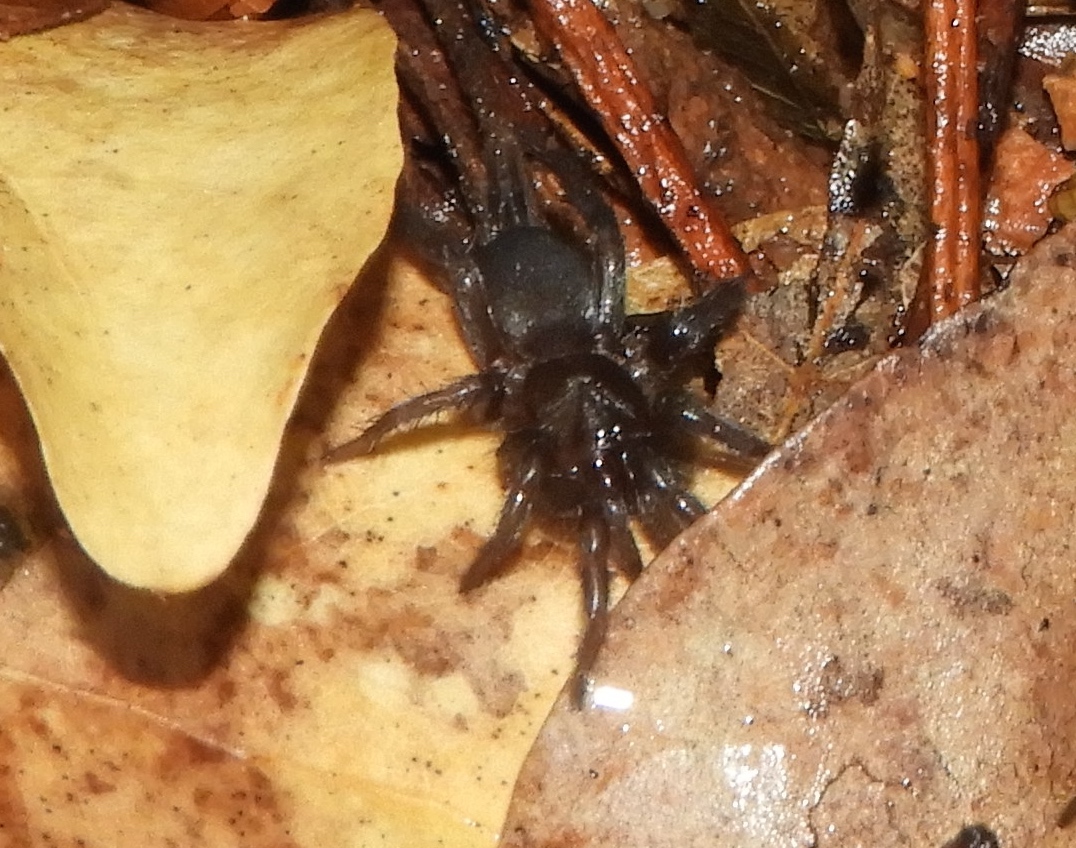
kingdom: Animalia
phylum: Arthropoda
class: Arachnida
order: Araneae
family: Euagridae
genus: Euagrus
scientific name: Euagrus gertschi
